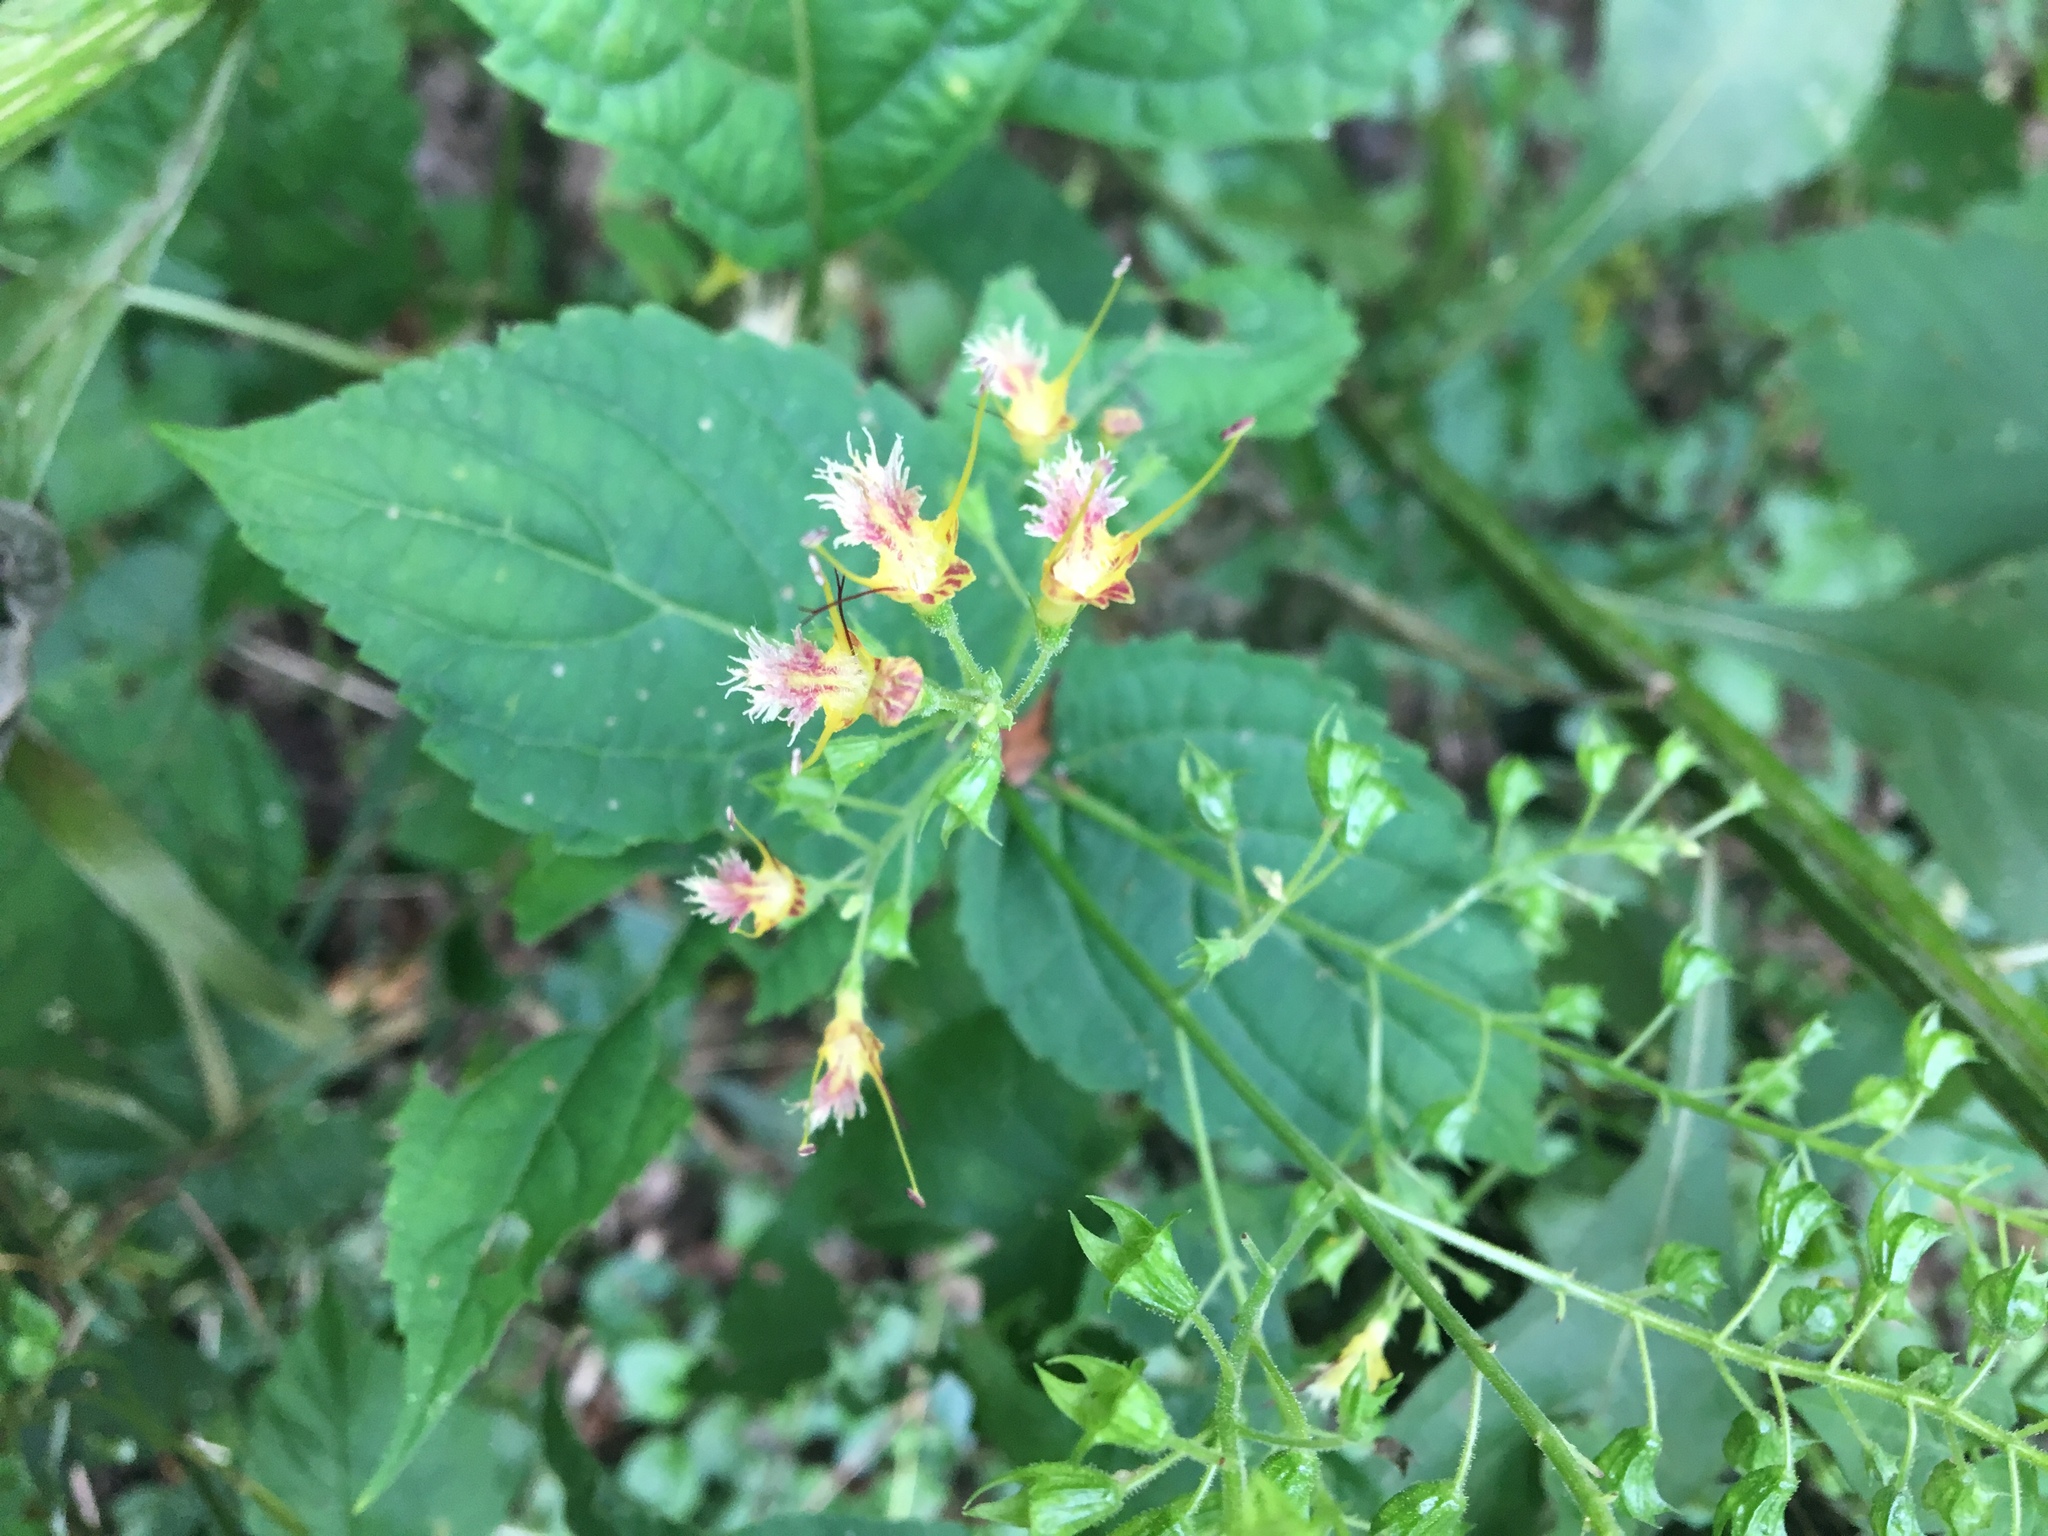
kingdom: Plantae
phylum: Tracheophyta
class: Magnoliopsida
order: Lamiales
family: Lamiaceae
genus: Collinsonia
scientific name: Collinsonia canadensis
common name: Northern horsebalm
